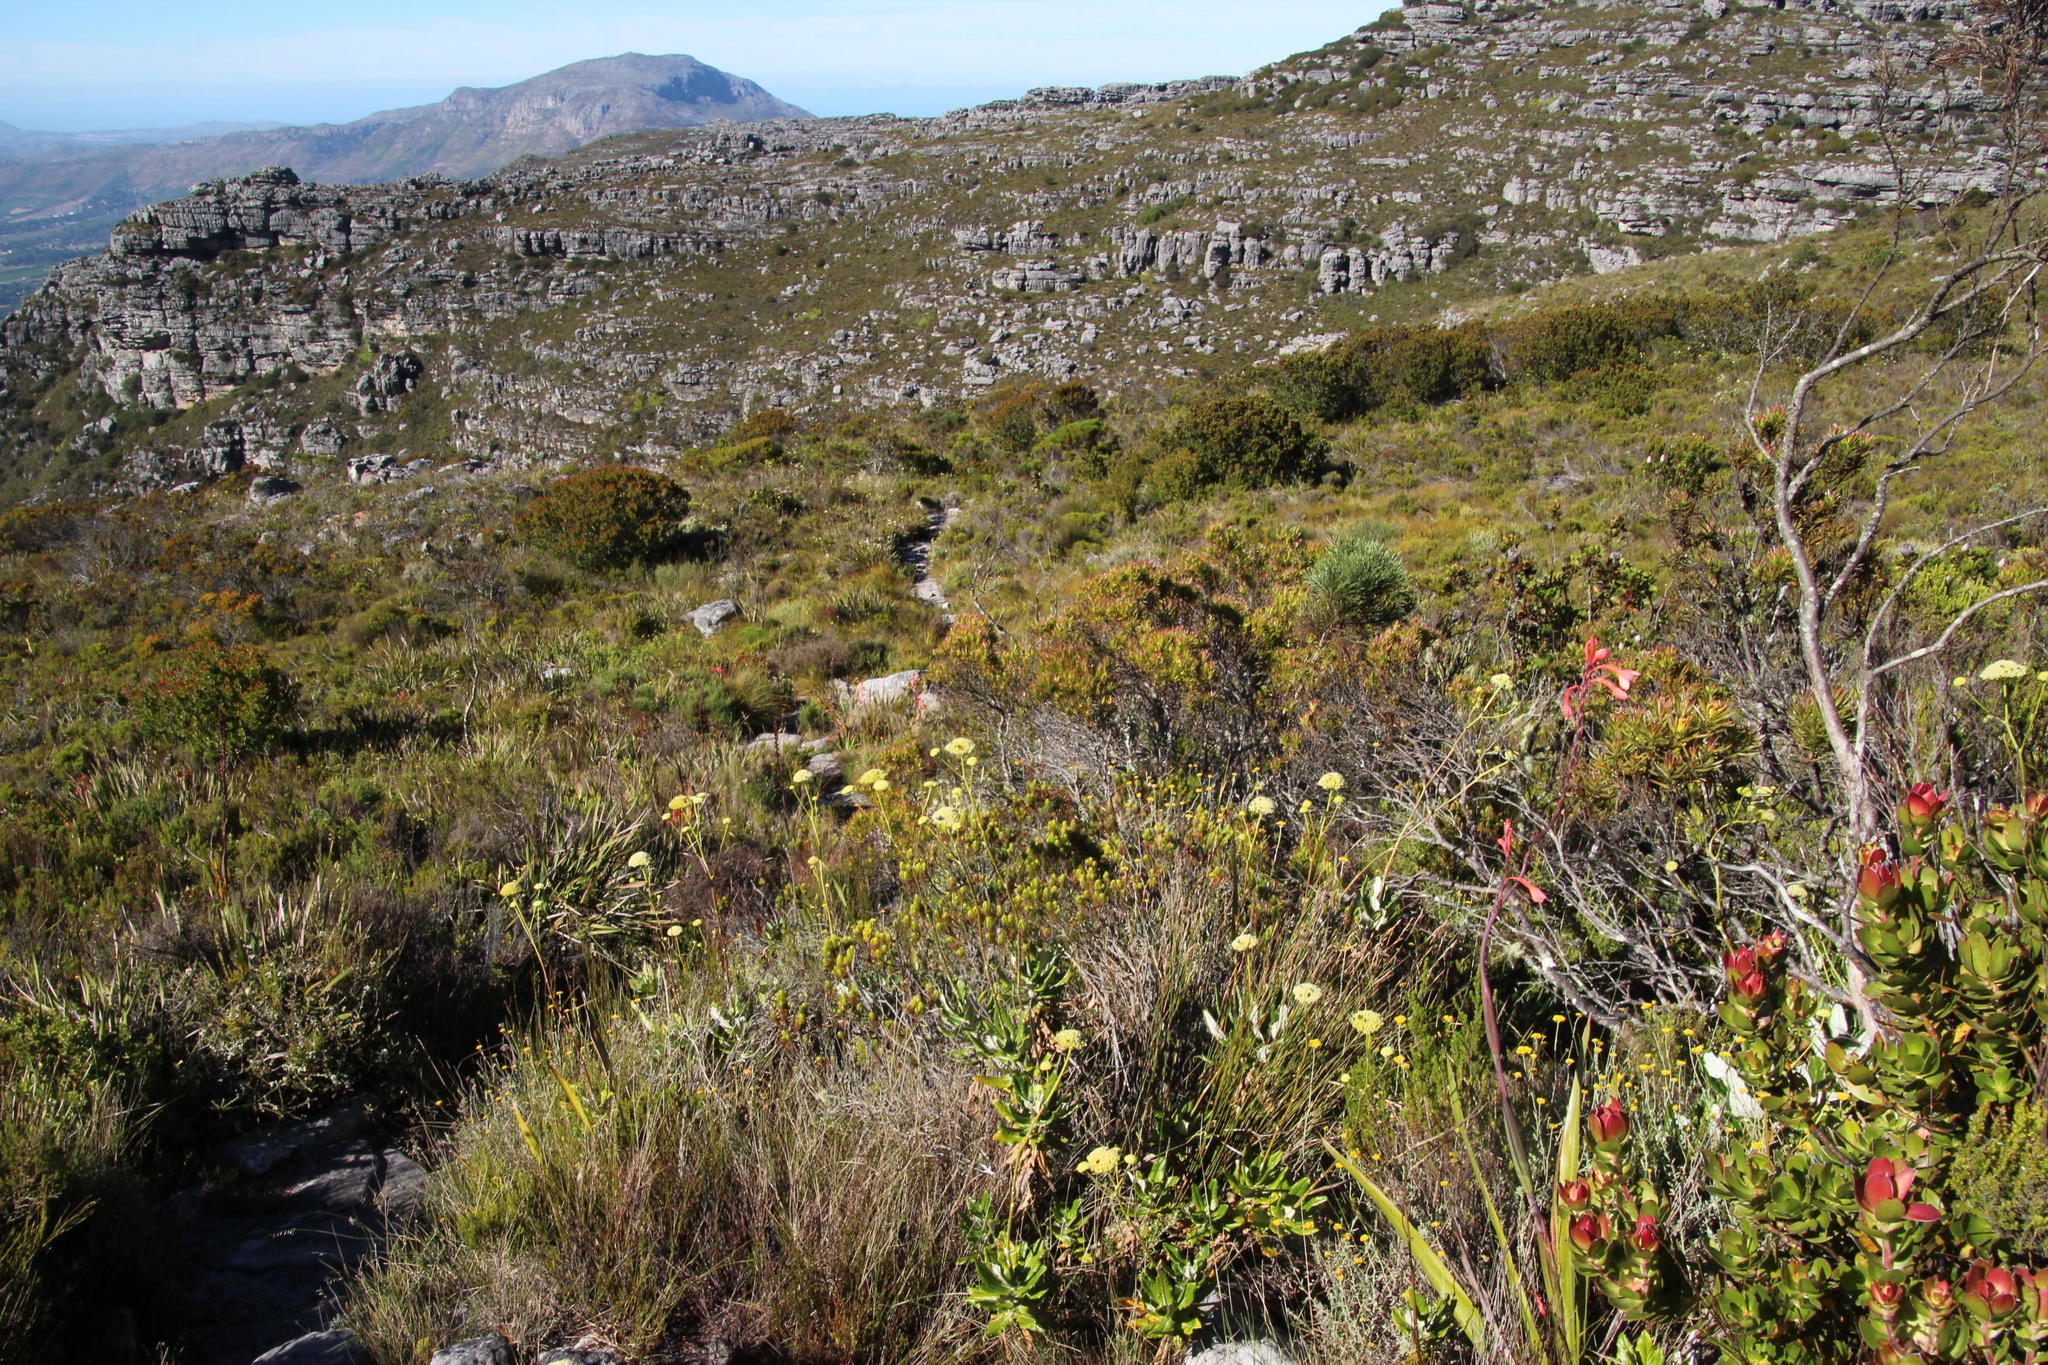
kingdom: Plantae
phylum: Tracheophyta
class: Magnoliopsida
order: Proteales
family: Proteaceae
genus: Leucadendron
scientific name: Leucadendron strobilinum
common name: Mountain rose
